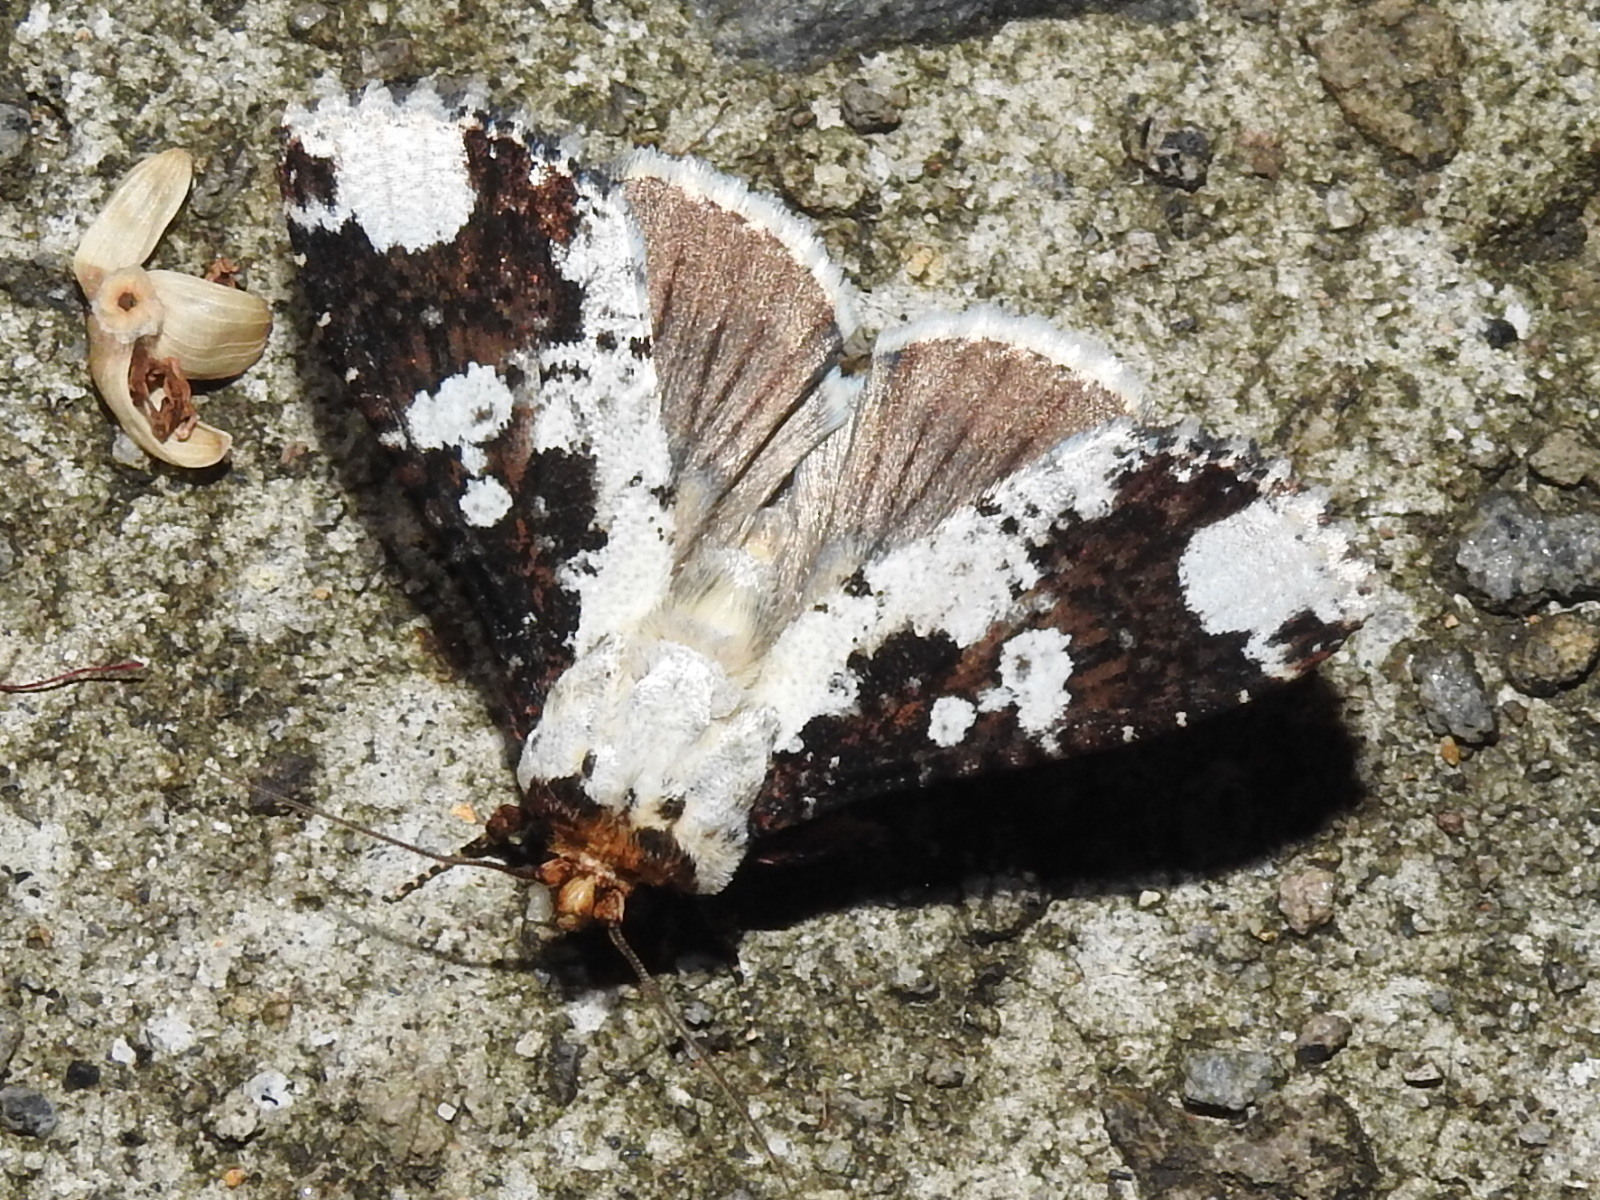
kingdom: Animalia
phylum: Arthropoda
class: Insecta
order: Lepidoptera
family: Noctuidae
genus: Condica
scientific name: Condica mimica
